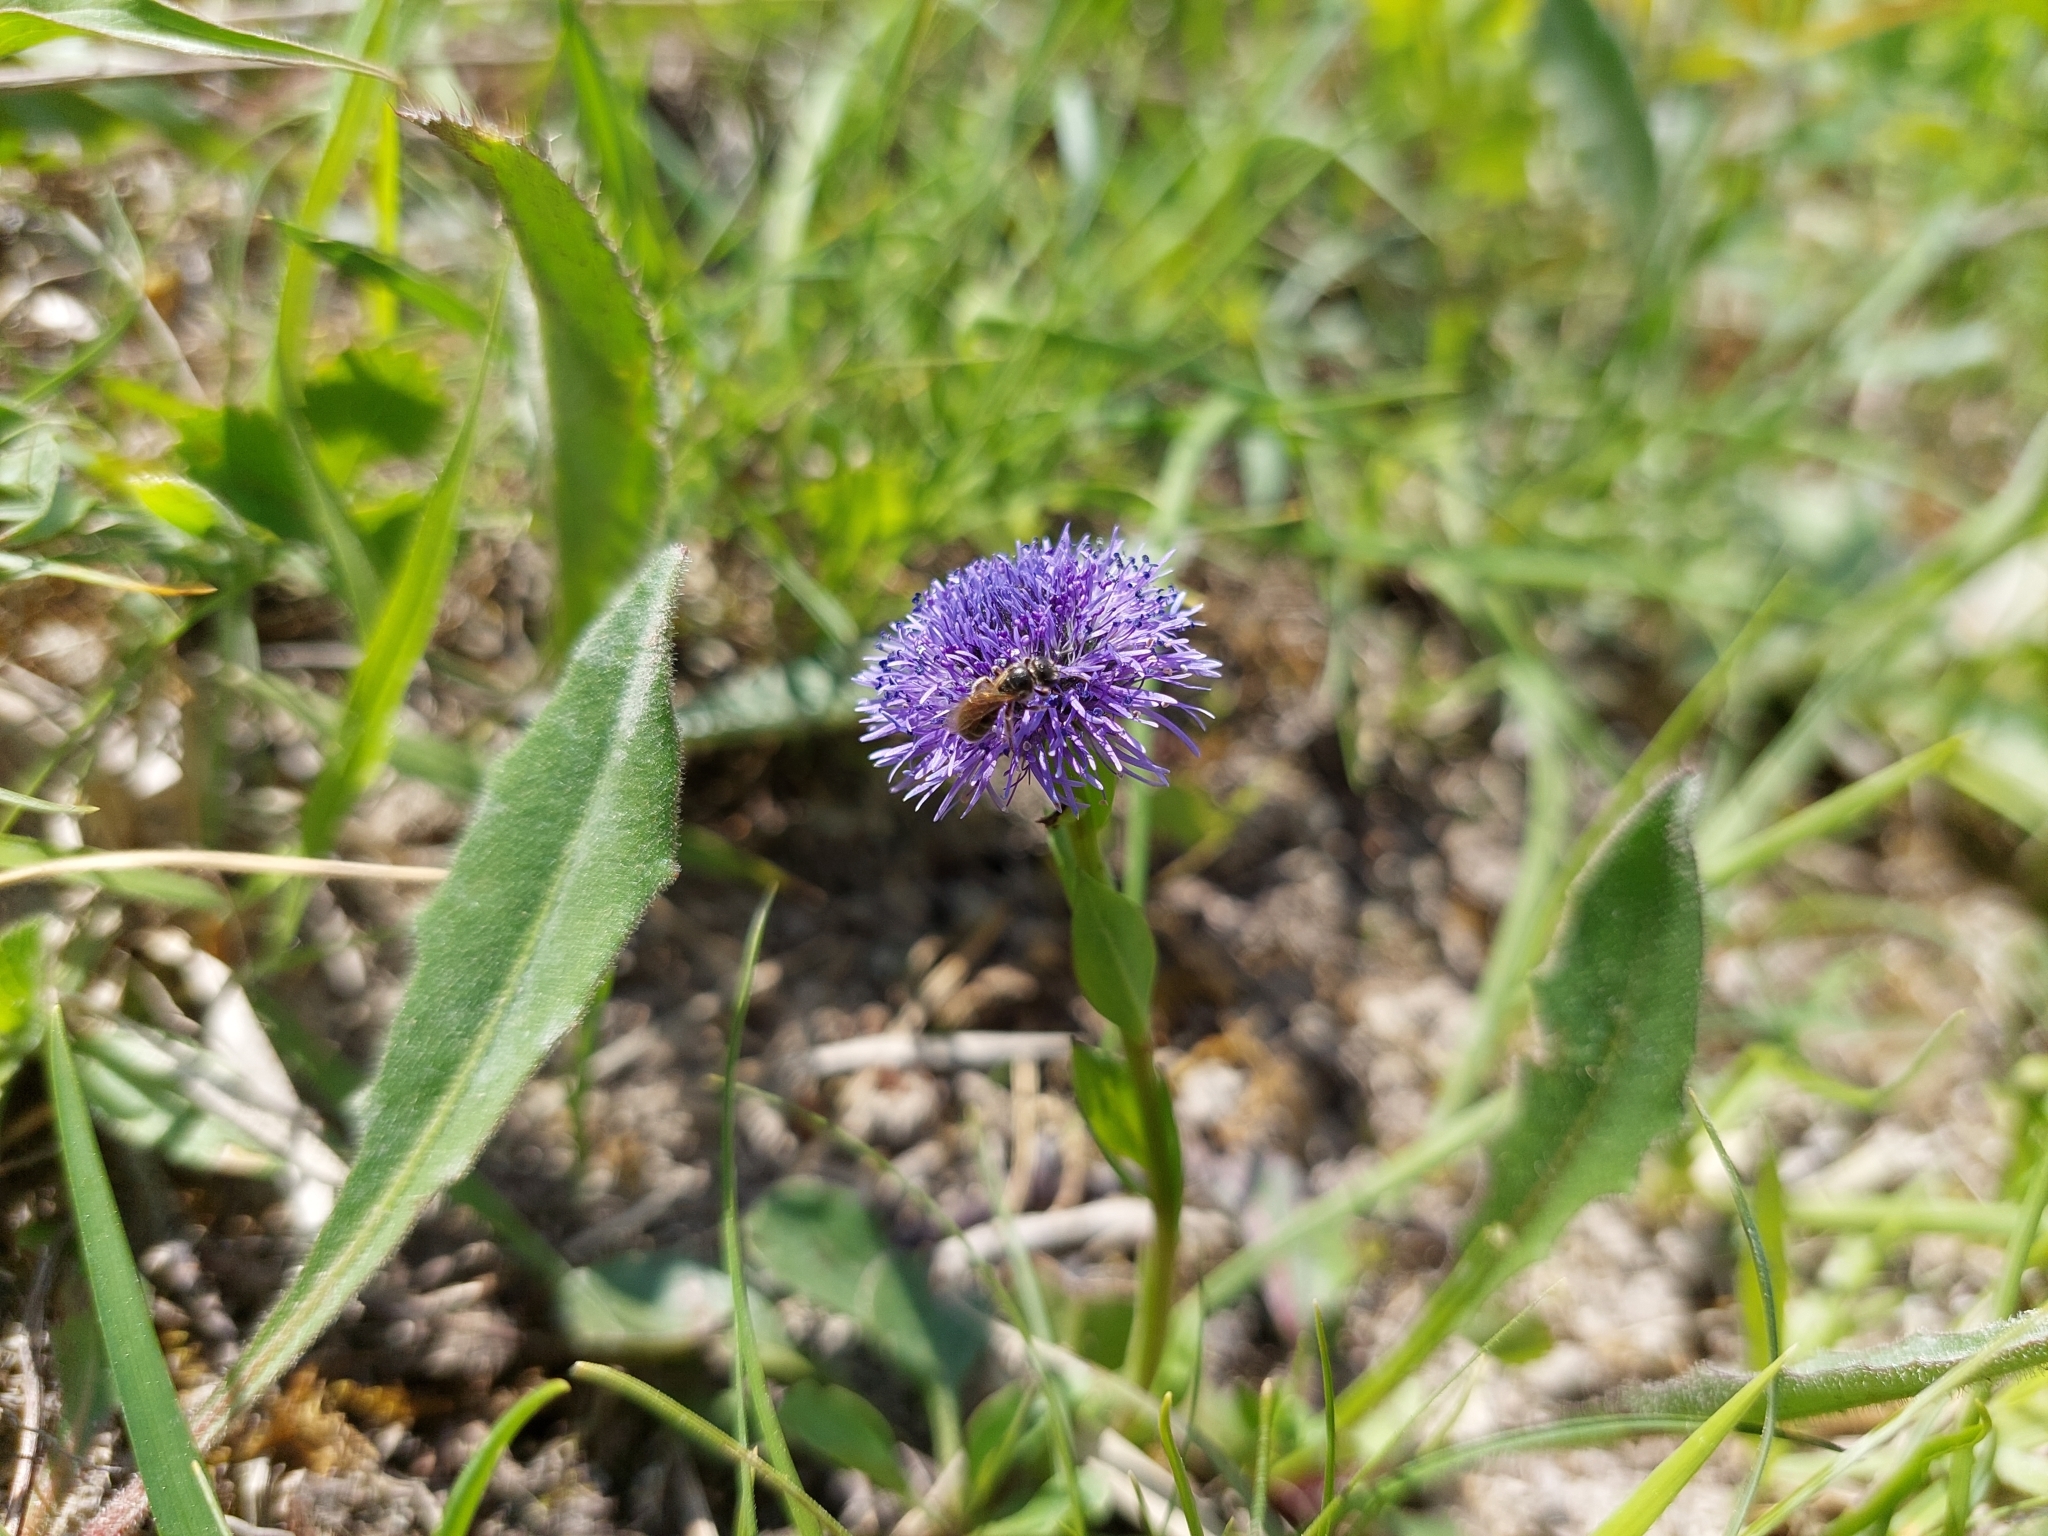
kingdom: Plantae
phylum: Tracheophyta
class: Magnoliopsida
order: Lamiales
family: Plantaginaceae
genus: Globularia
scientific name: Globularia bisnagarica
